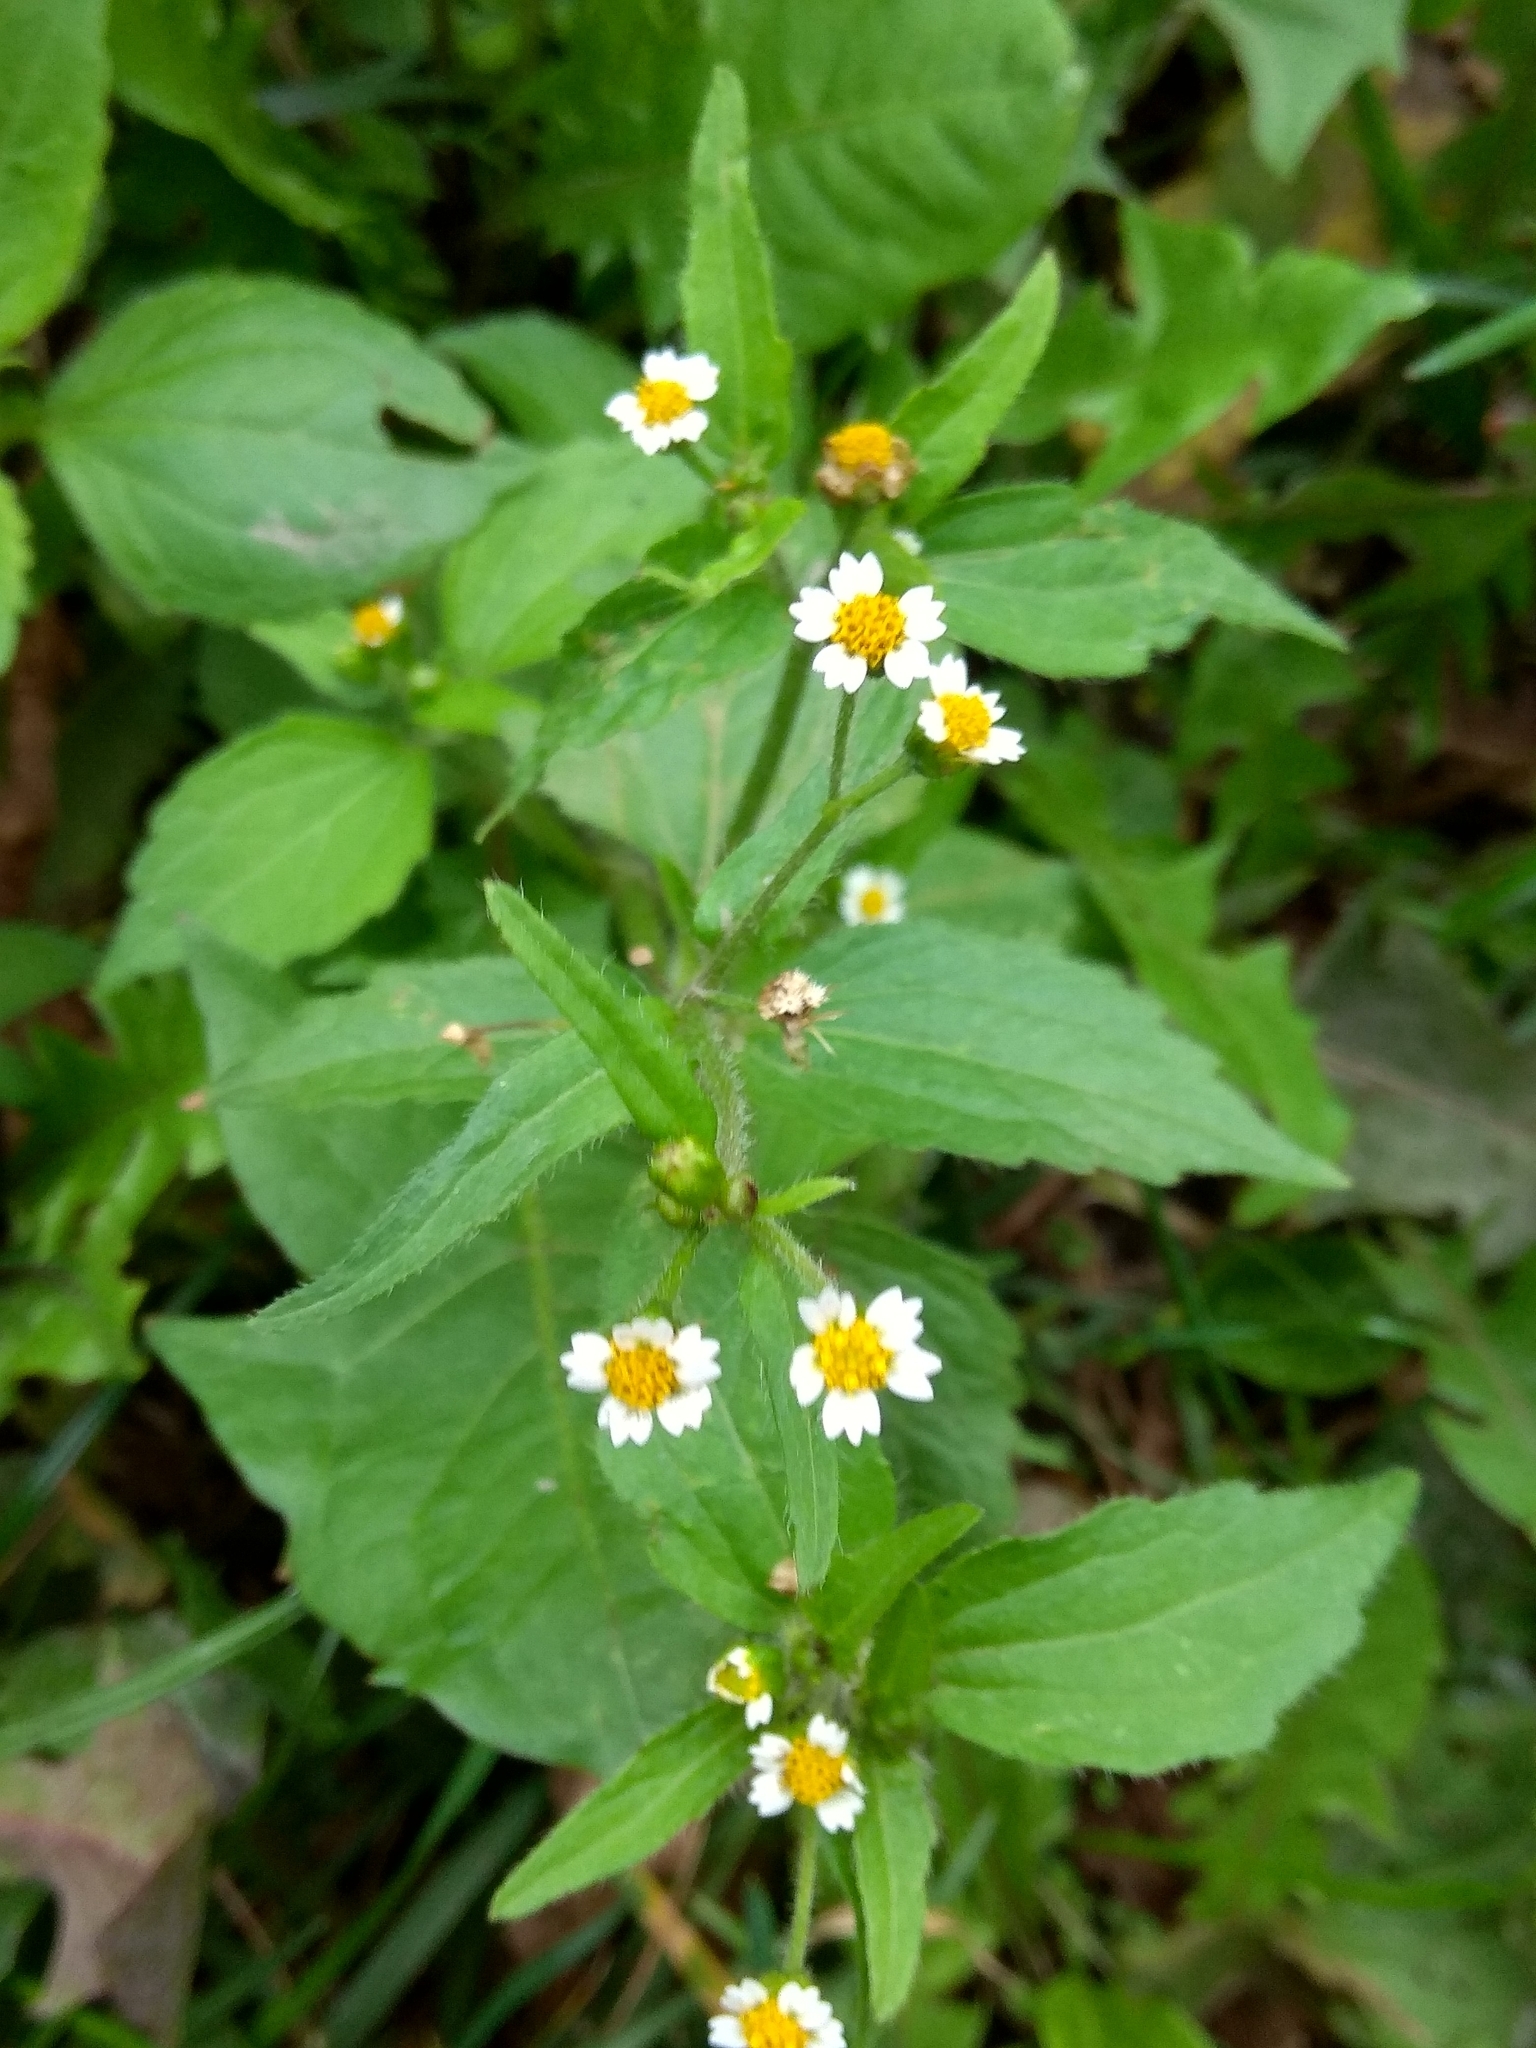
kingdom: Plantae
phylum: Tracheophyta
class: Magnoliopsida
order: Asterales
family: Asteraceae
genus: Galinsoga
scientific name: Galinsoga quadriradiata
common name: Shaggy soldier
